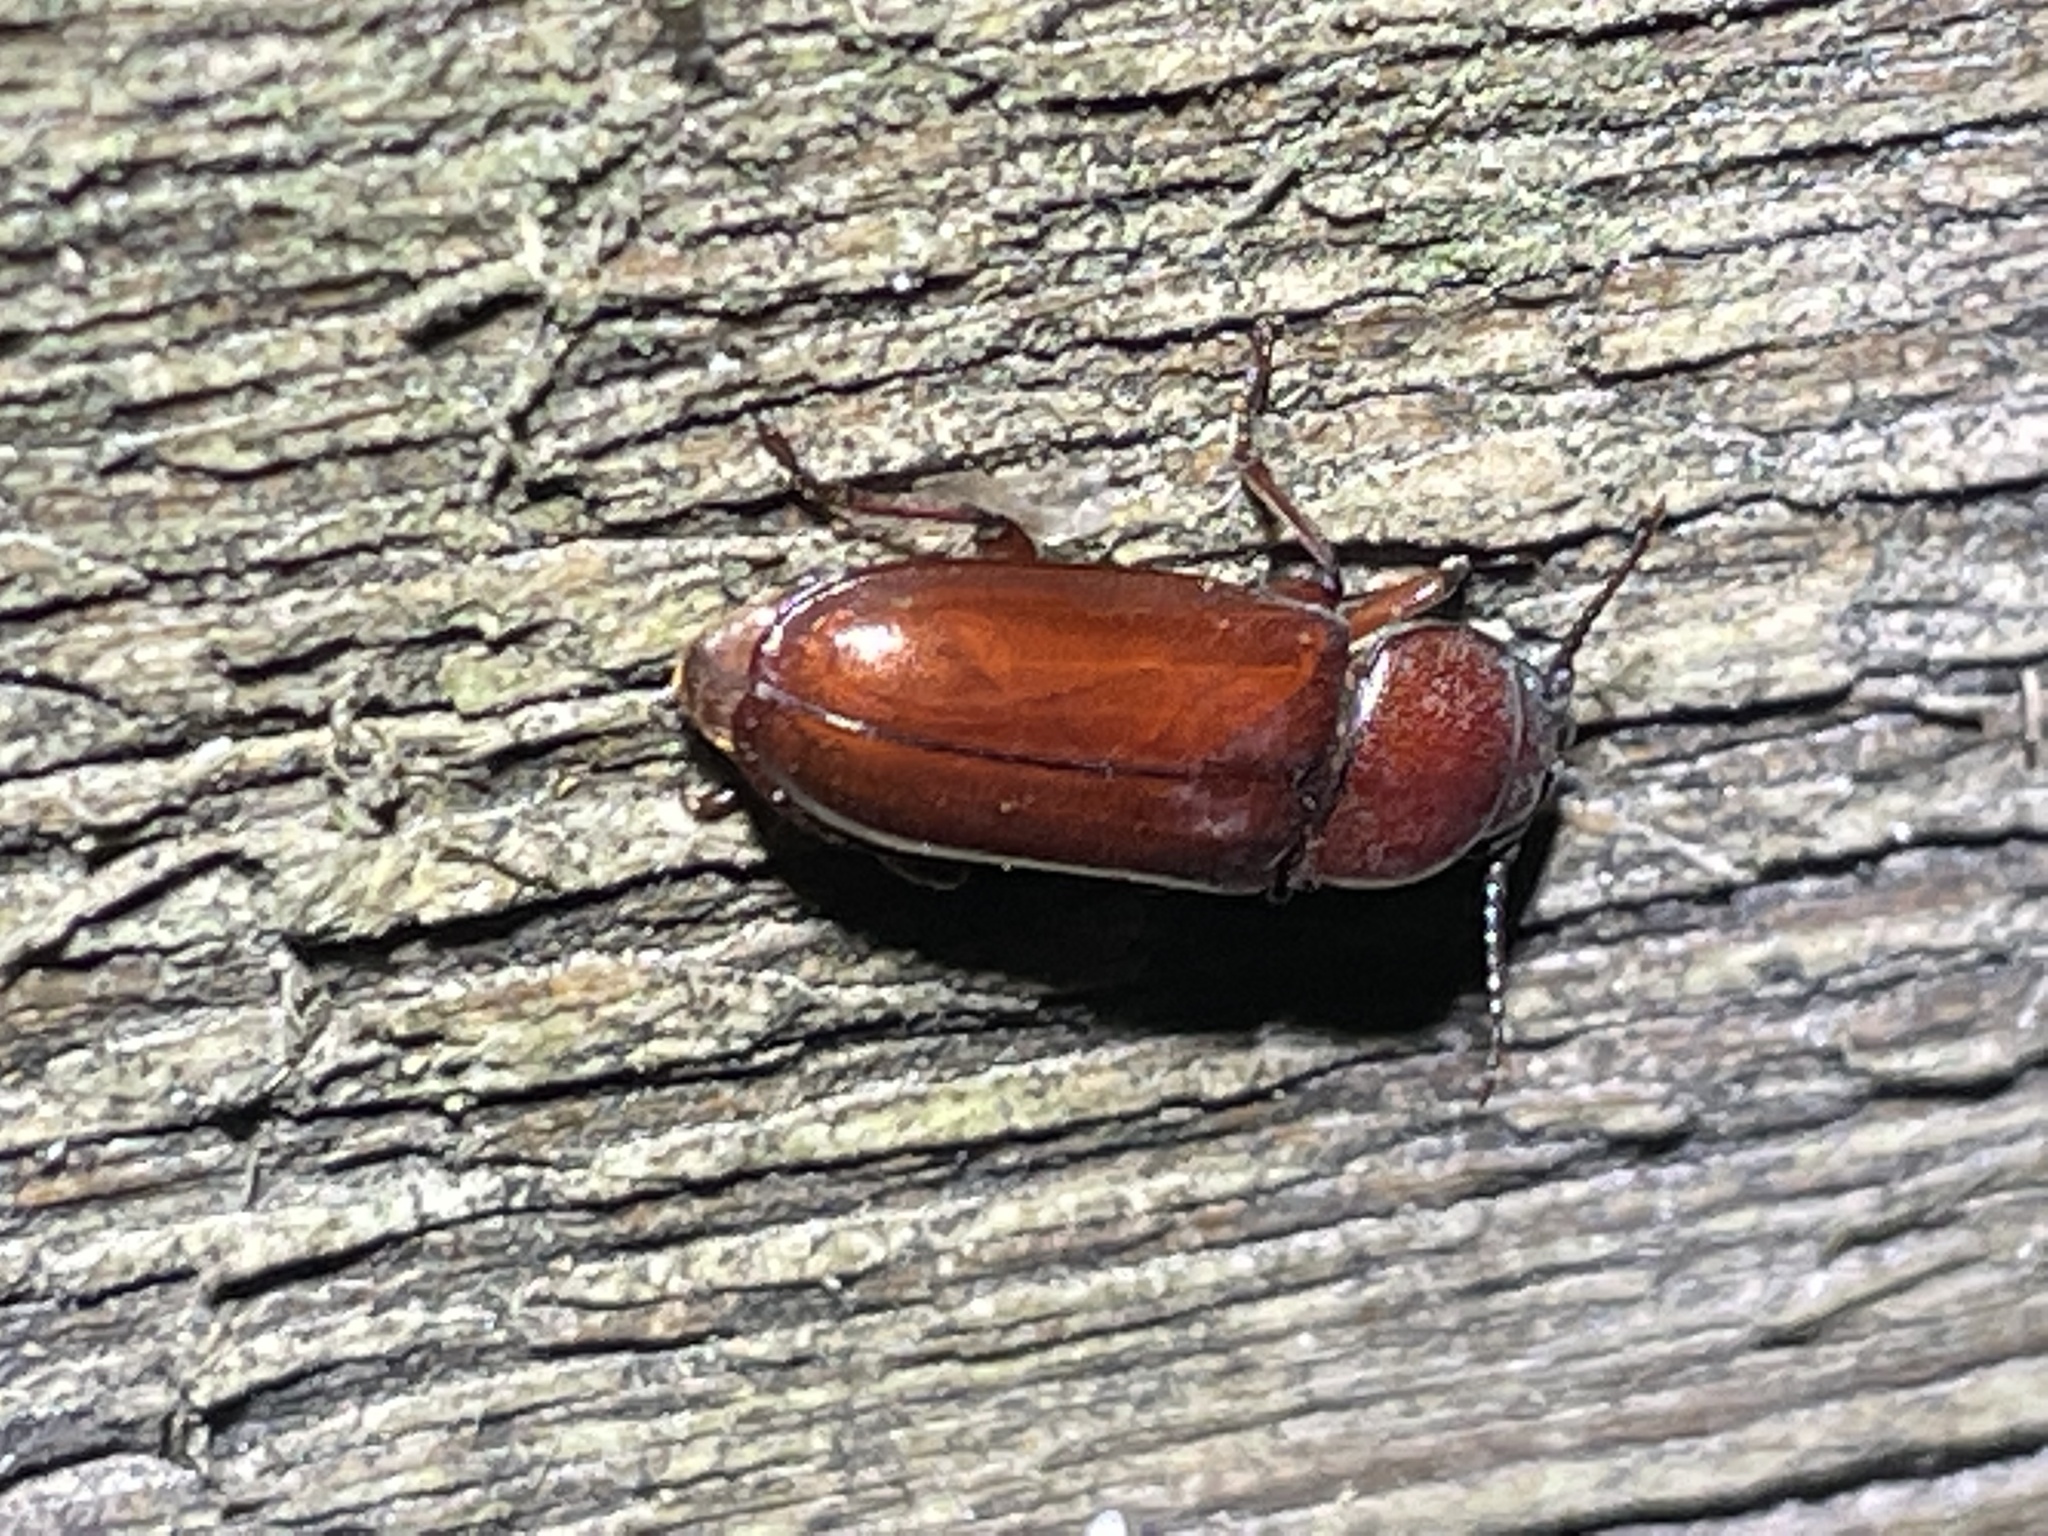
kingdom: Animalia
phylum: Arthropoda
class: Insecta
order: Coleoptera
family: Cerambycidae
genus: Neandra
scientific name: Neandra brunnea
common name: Pole borer
